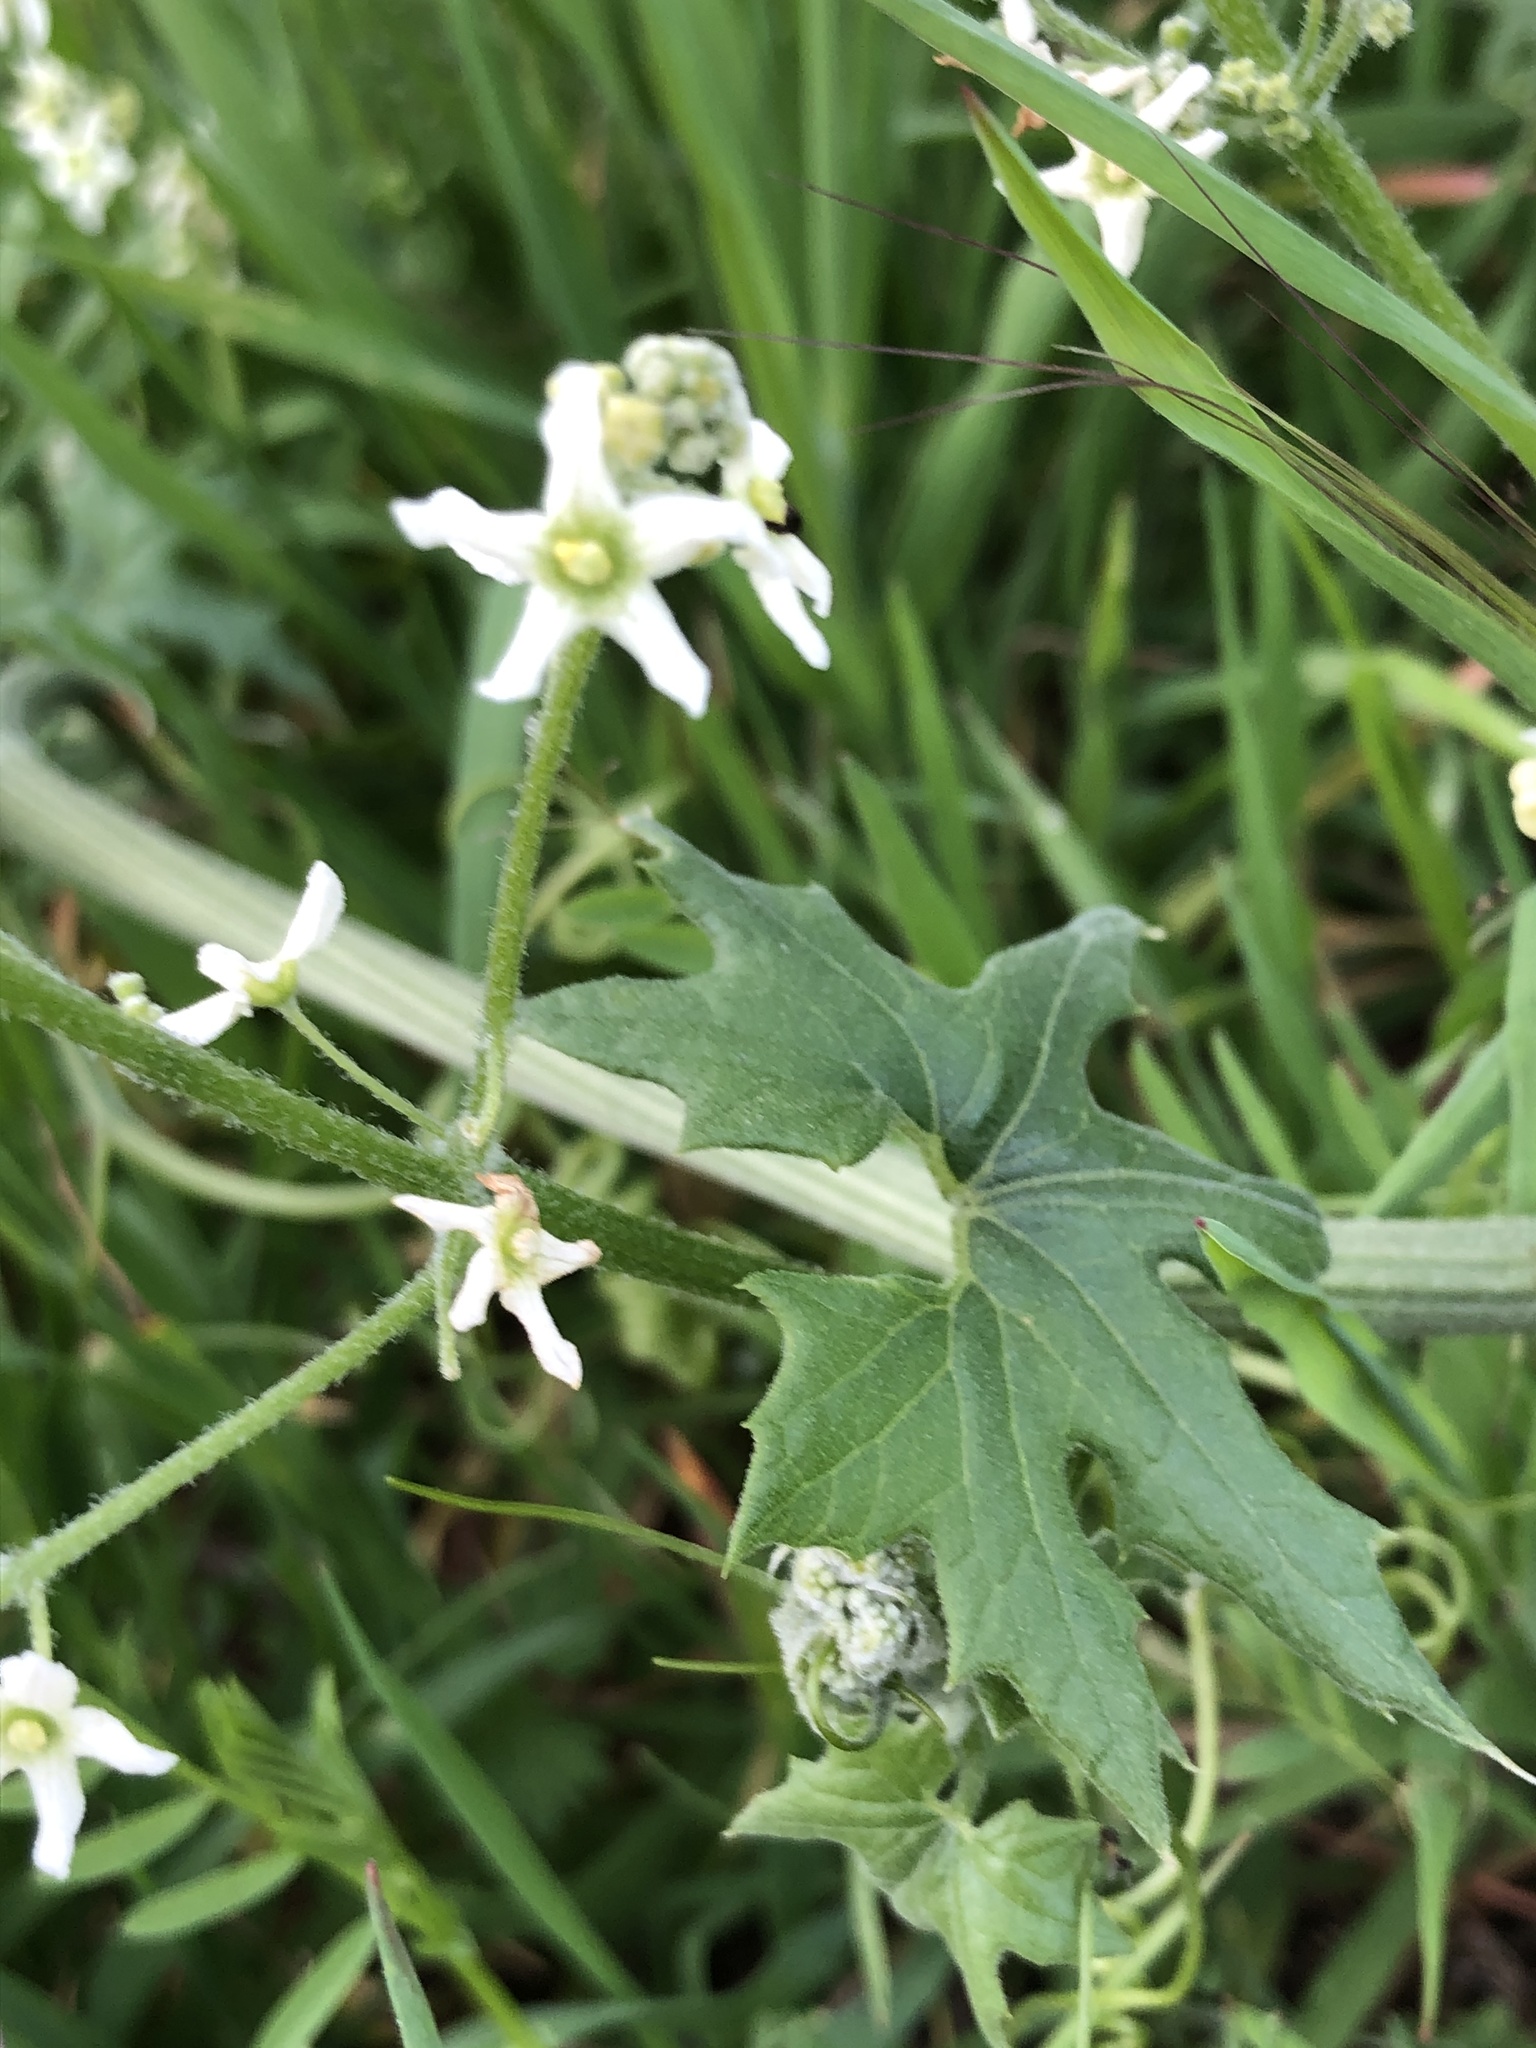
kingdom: Plantae
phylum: Tracheophyta
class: Magnoliopsida
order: Cucurbitales
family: Cucurbitaceae
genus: Marah
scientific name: Marah fabacea
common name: California manroot
